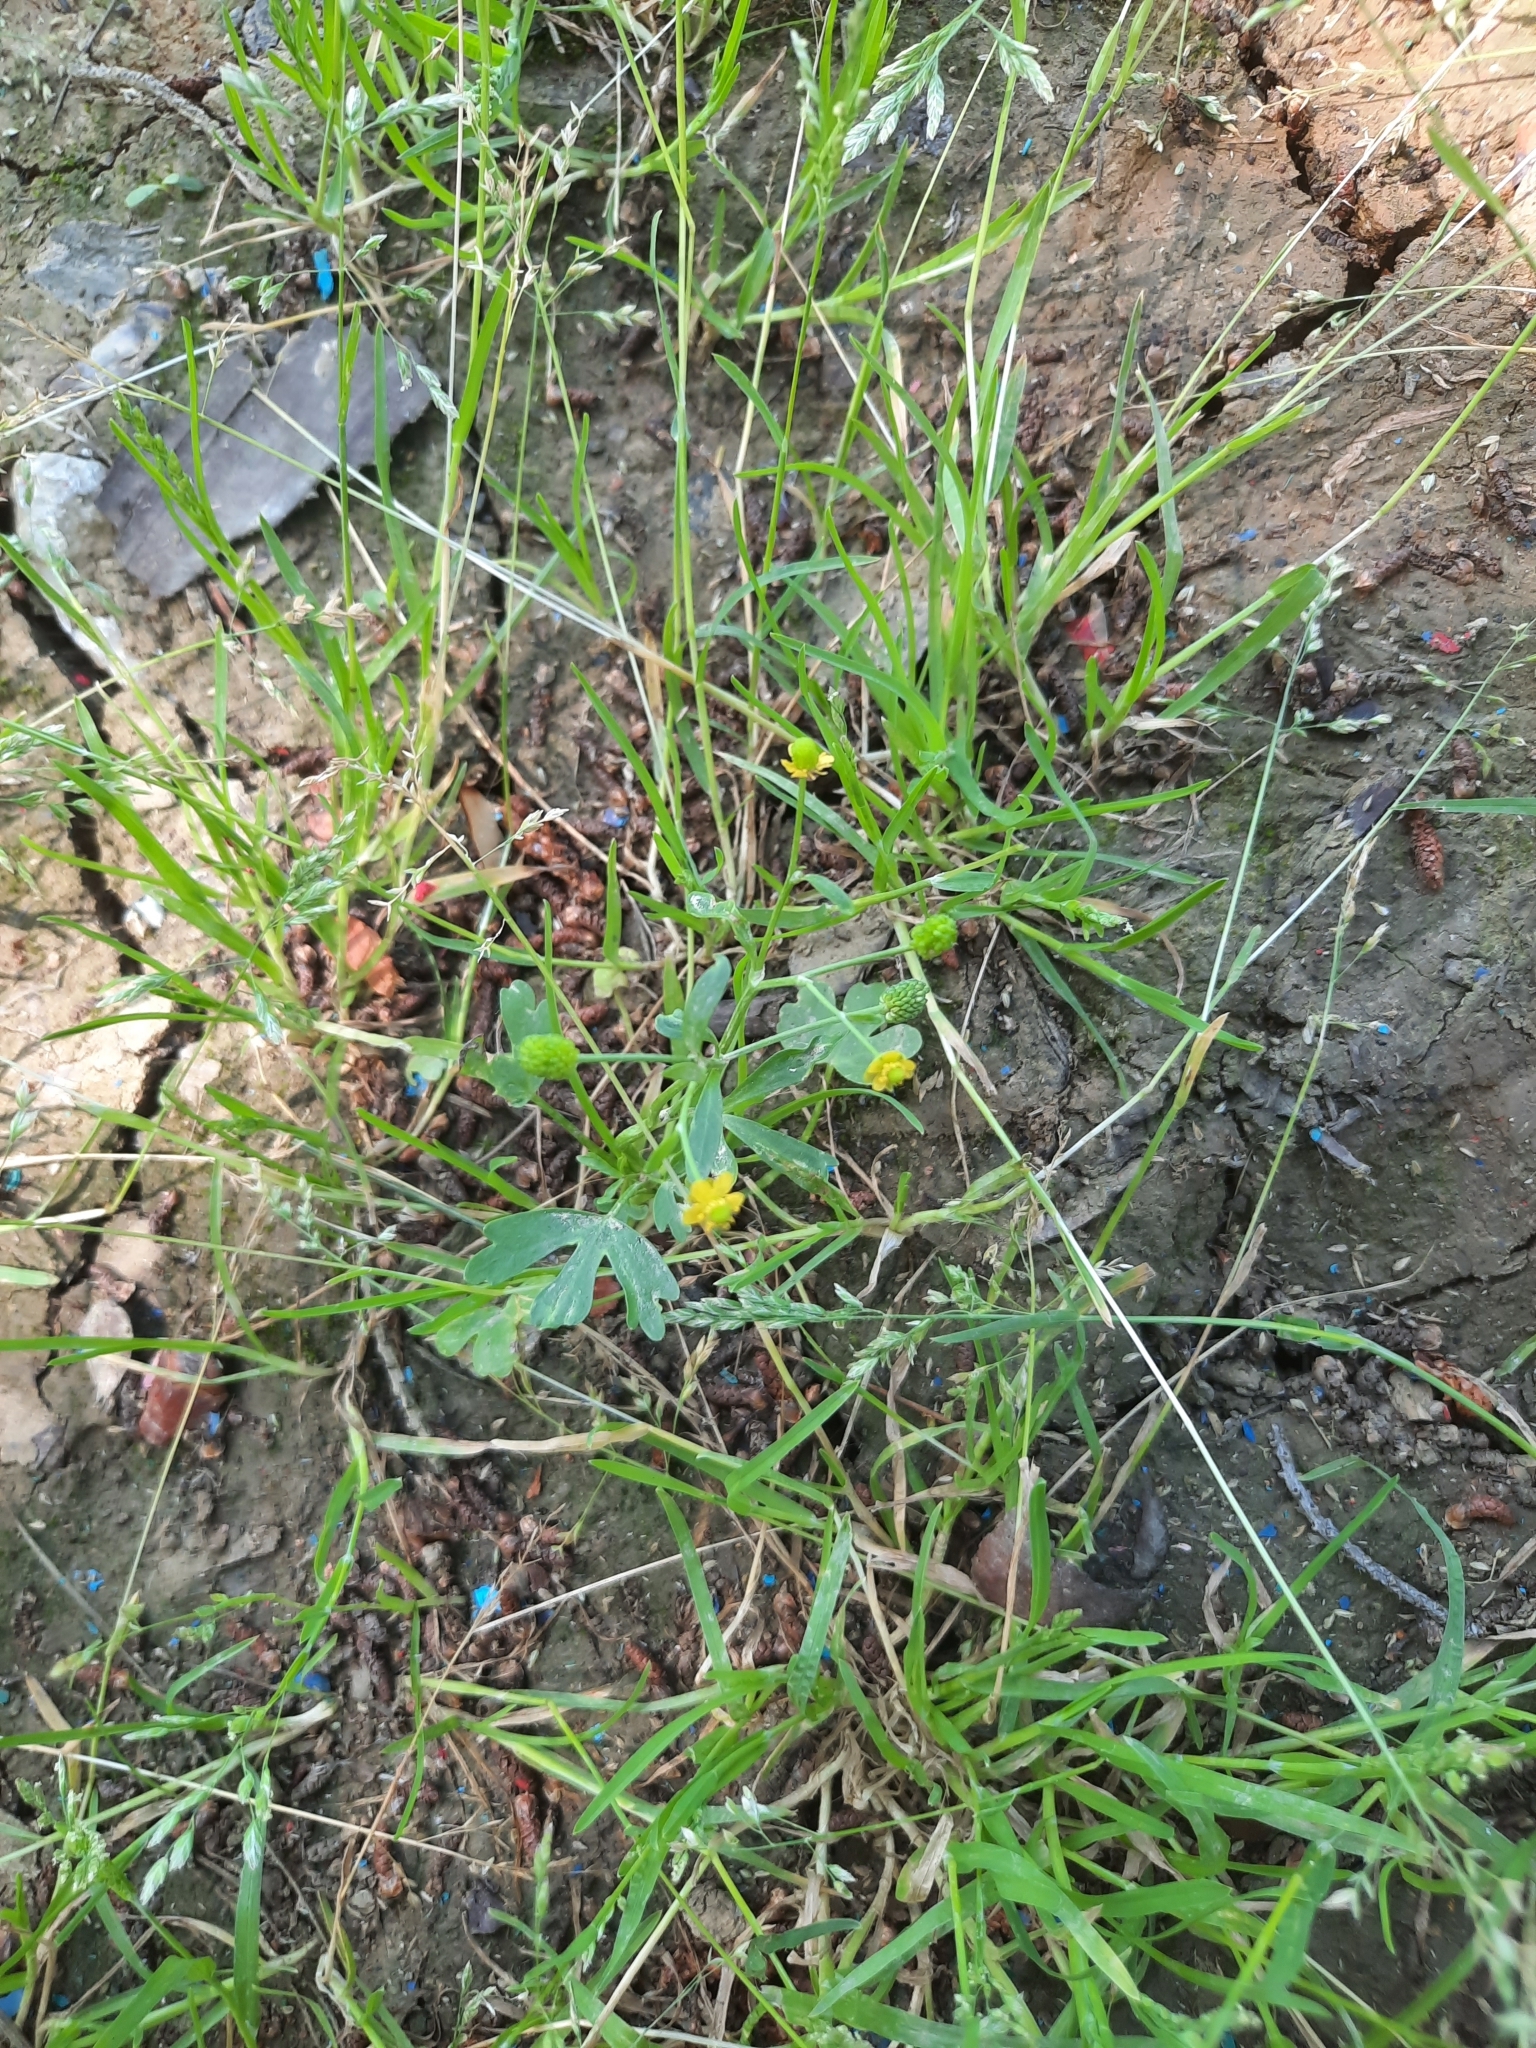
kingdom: Plantae
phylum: Tracheophyta
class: Magnoliopsida
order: Ranunculales
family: Ranunculaceae
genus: Ranunculus
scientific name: Ranunculus sceleratus
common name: Celery-leaved buttercup
